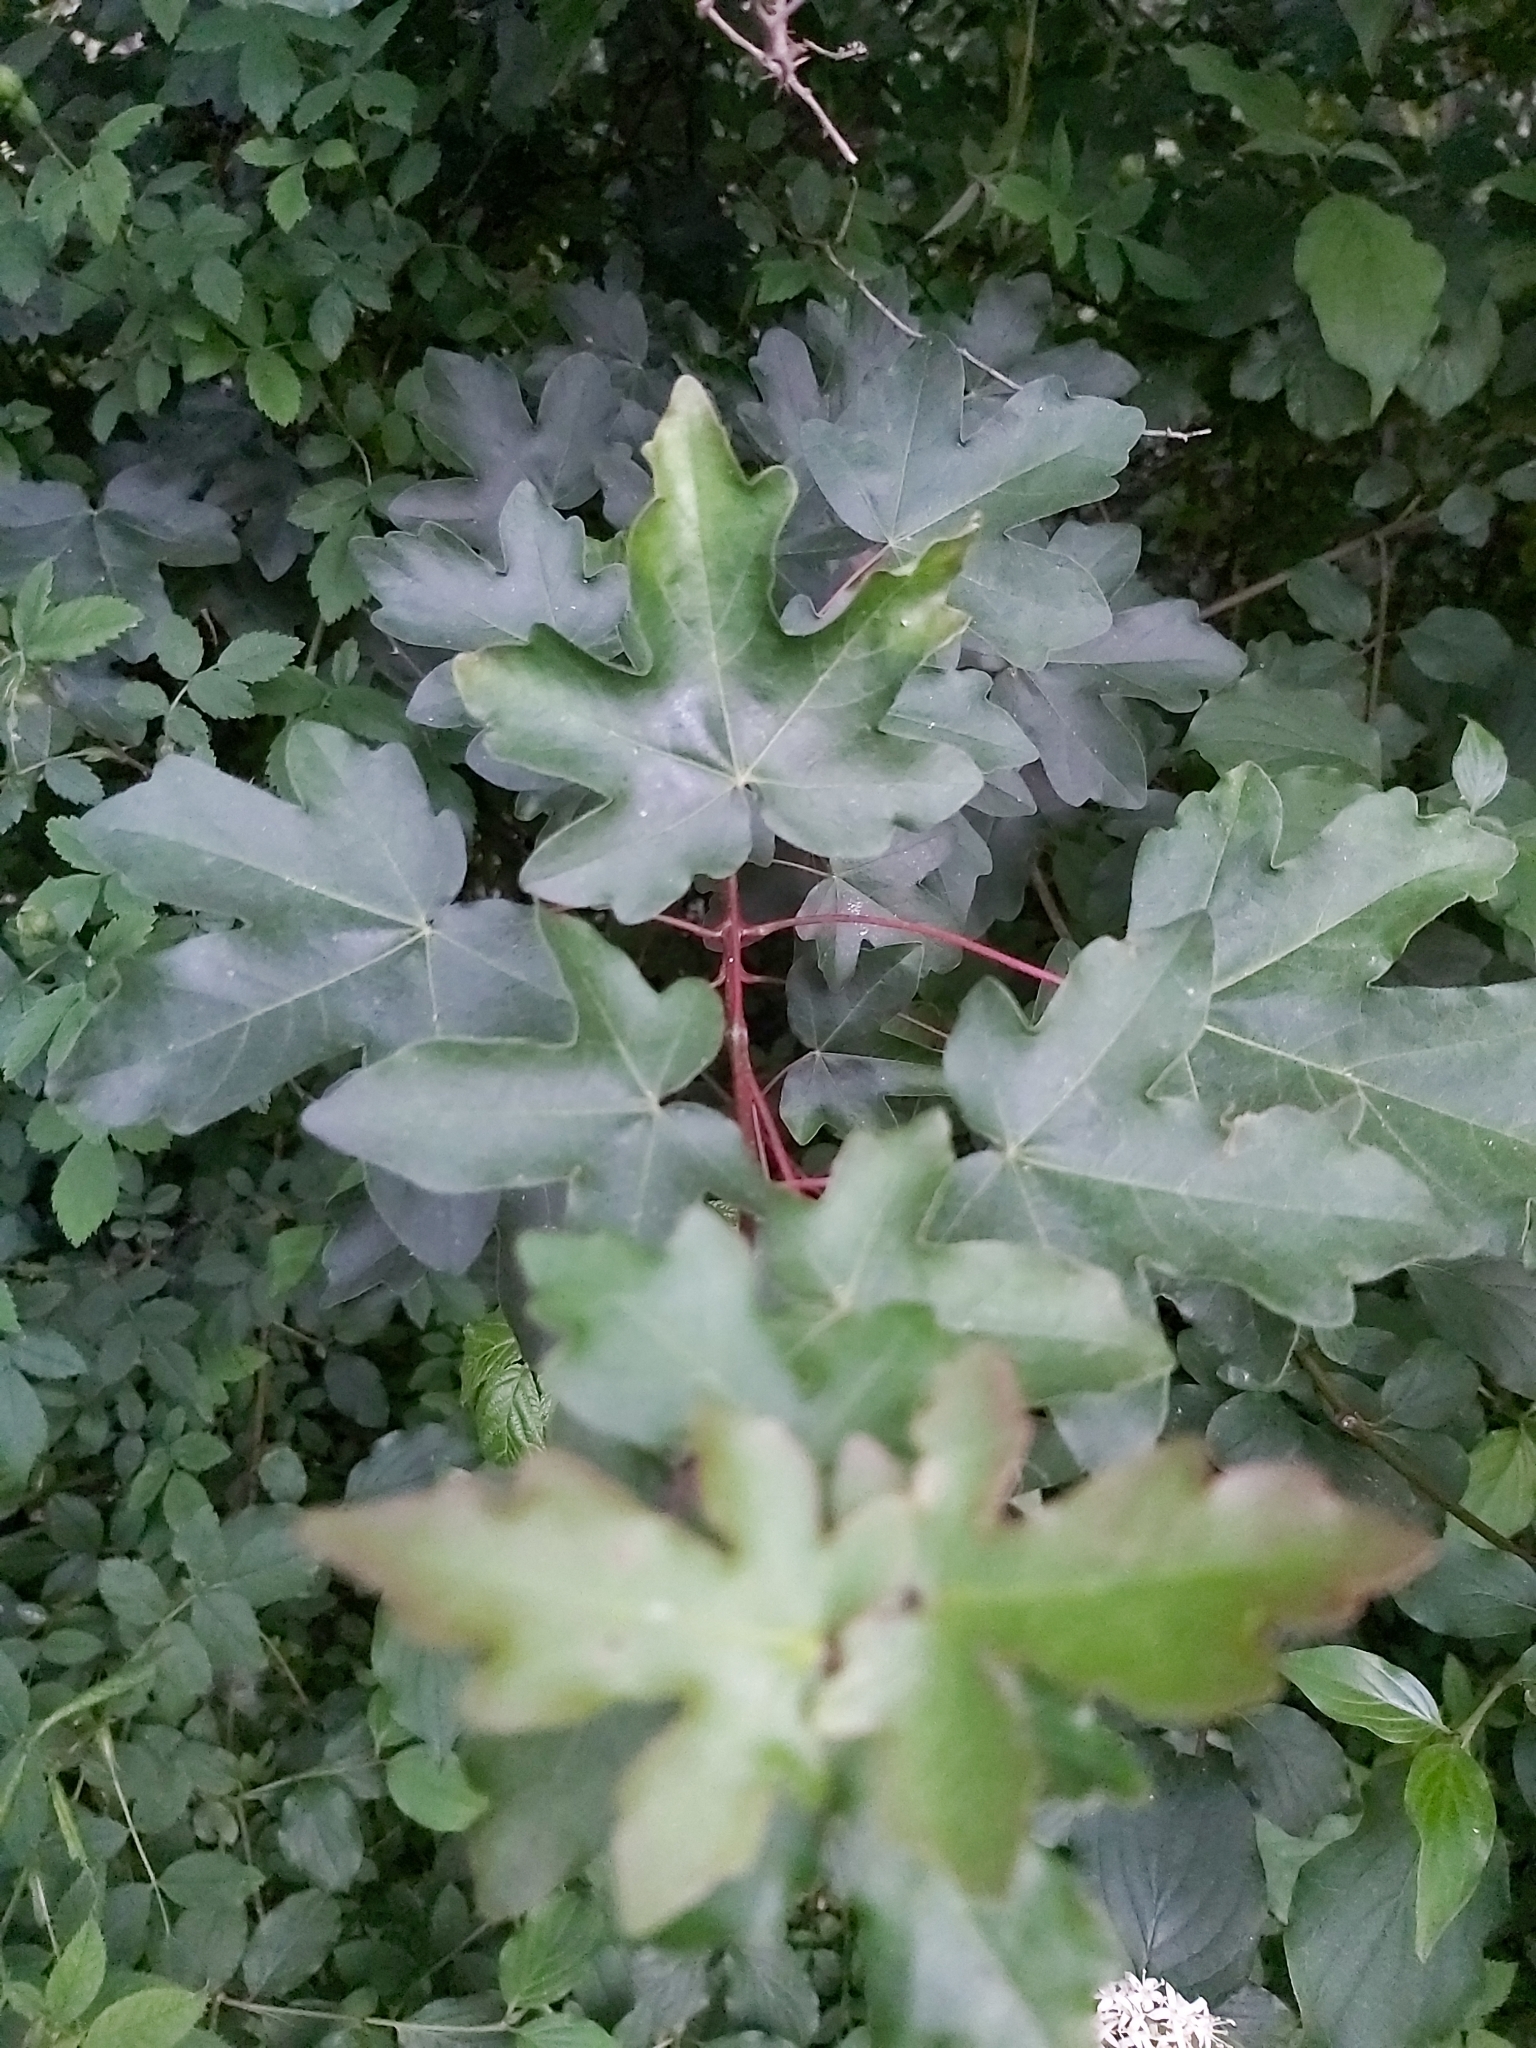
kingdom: Plantae
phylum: Tracheophyta
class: Magnoliopsida
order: Sapindales
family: Sapindaceae
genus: Acer
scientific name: Acer campestre
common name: Field maple
